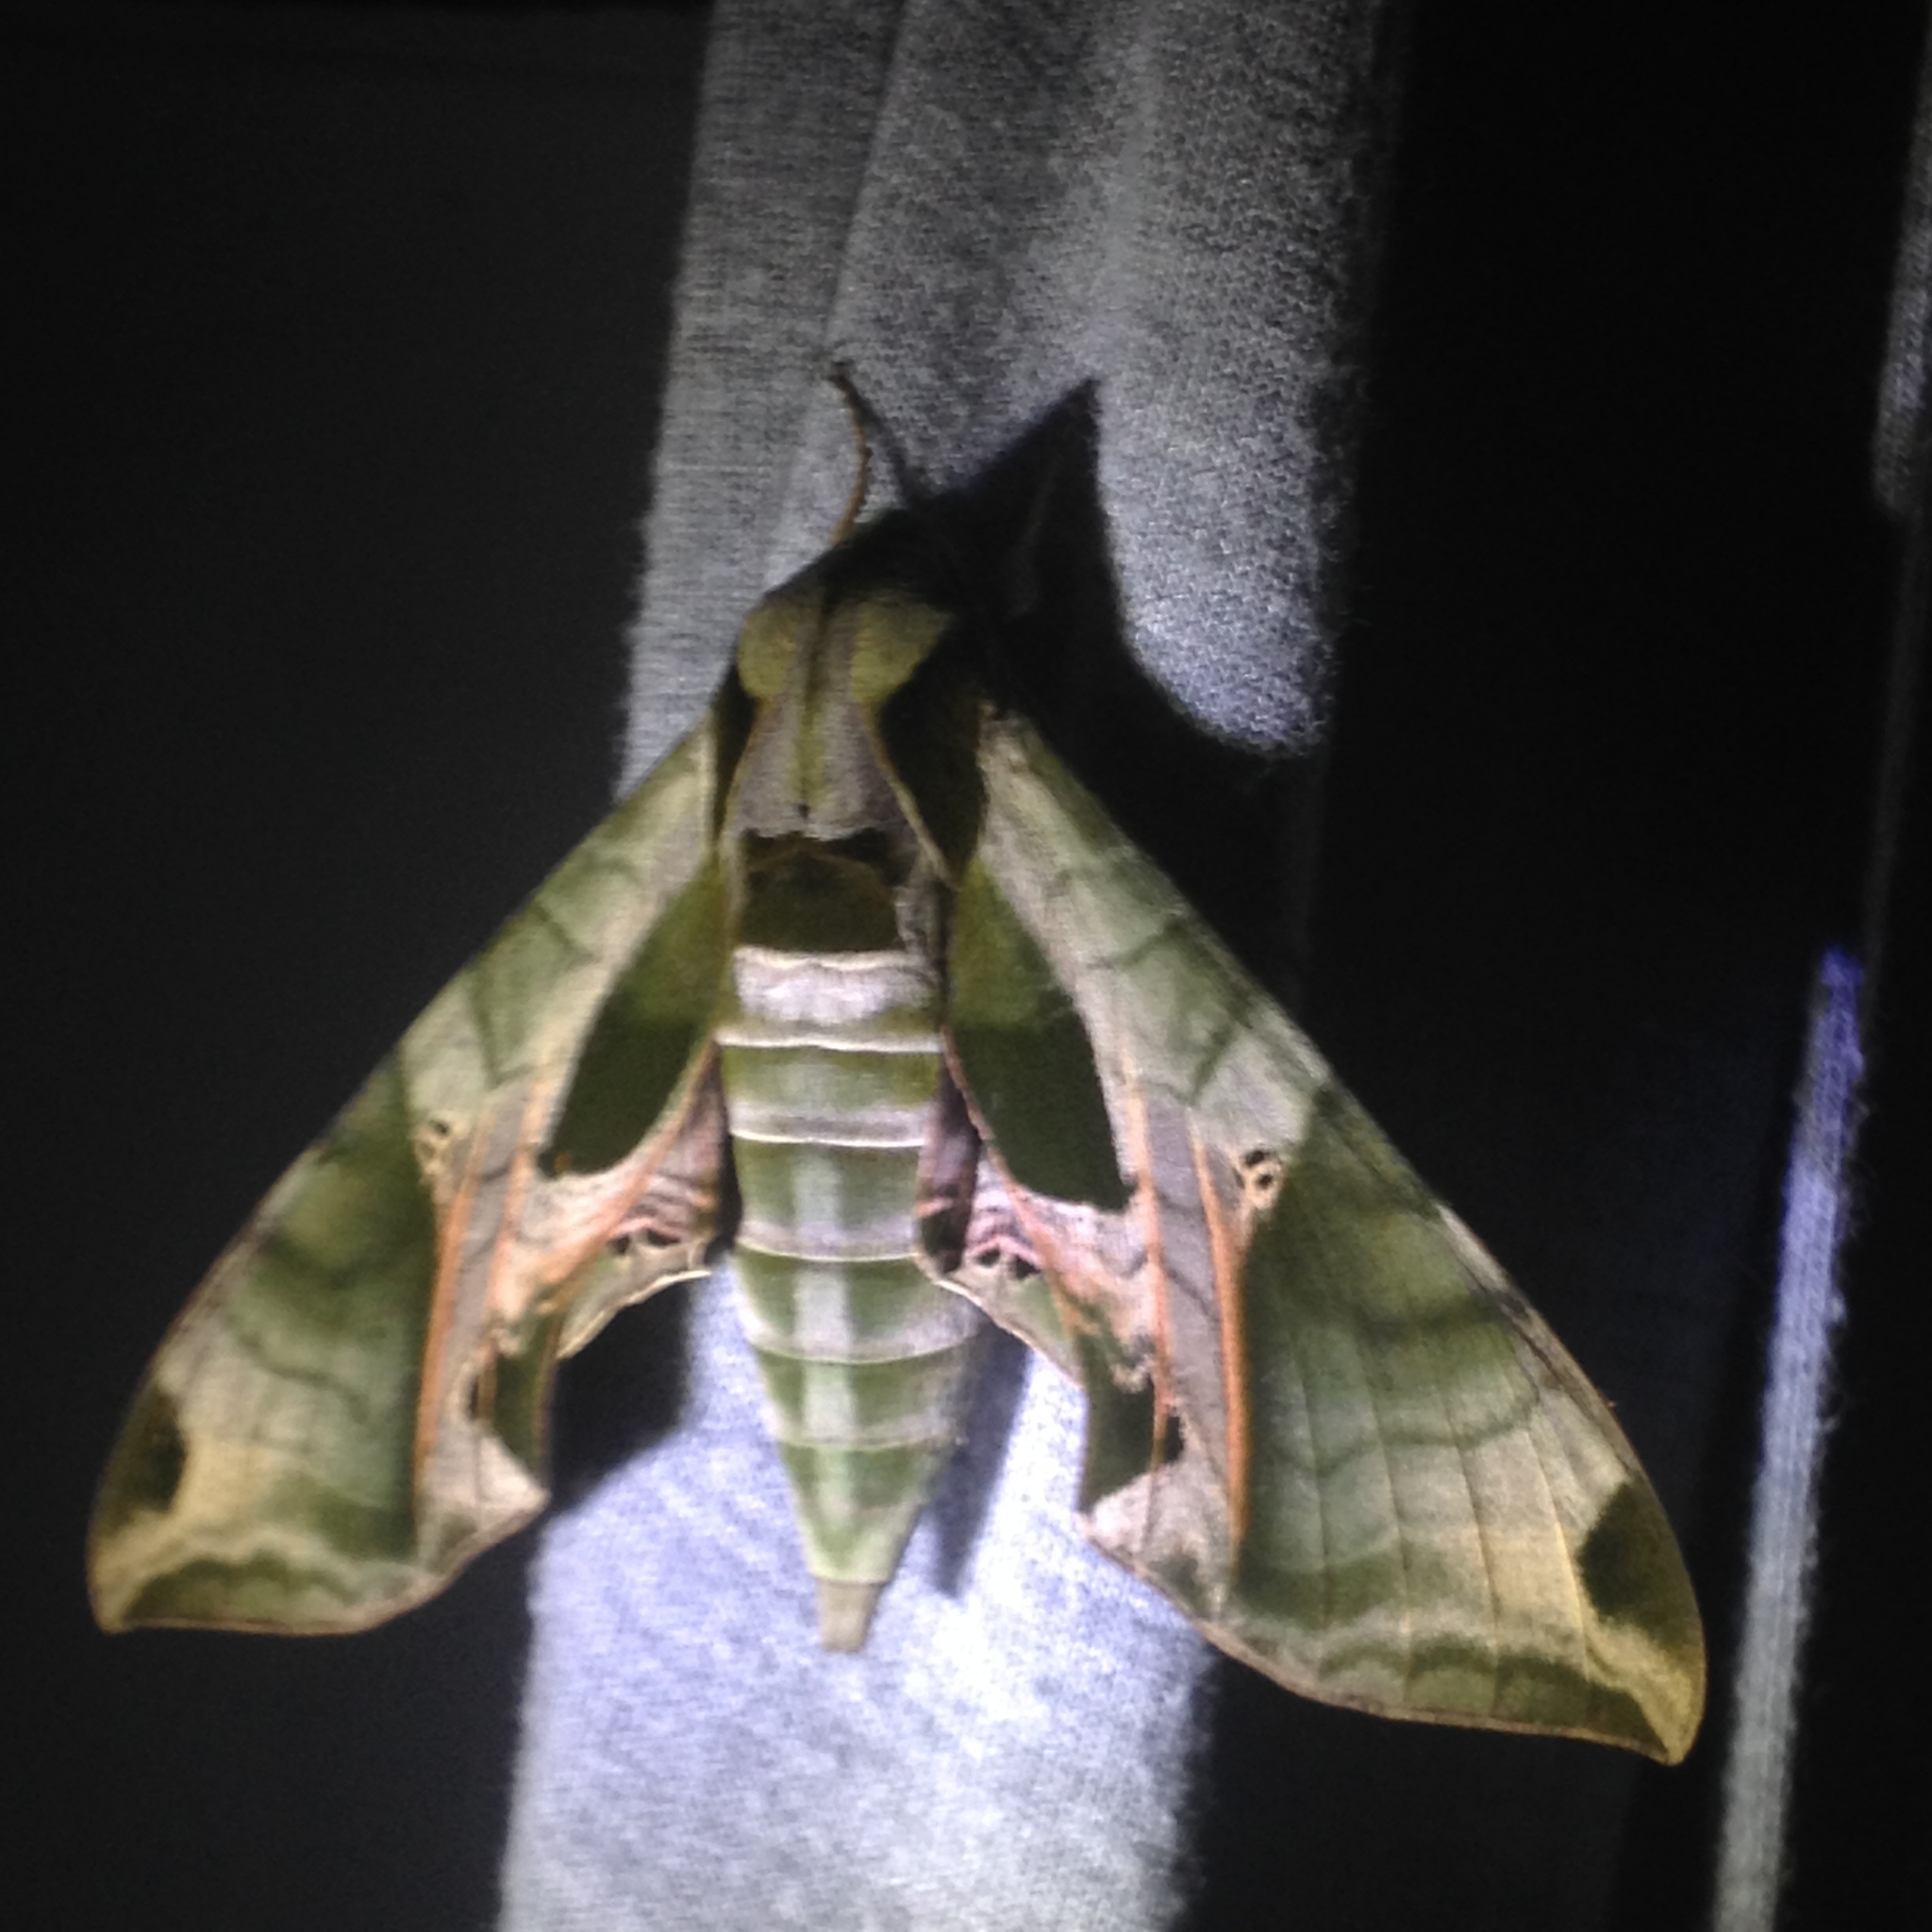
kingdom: Animalia
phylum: Arthropoda
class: Insecta
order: Lepidoptera
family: Sphingidae
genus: Eumorpha
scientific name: Eumorpha pandorus
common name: Pandora sphinx
